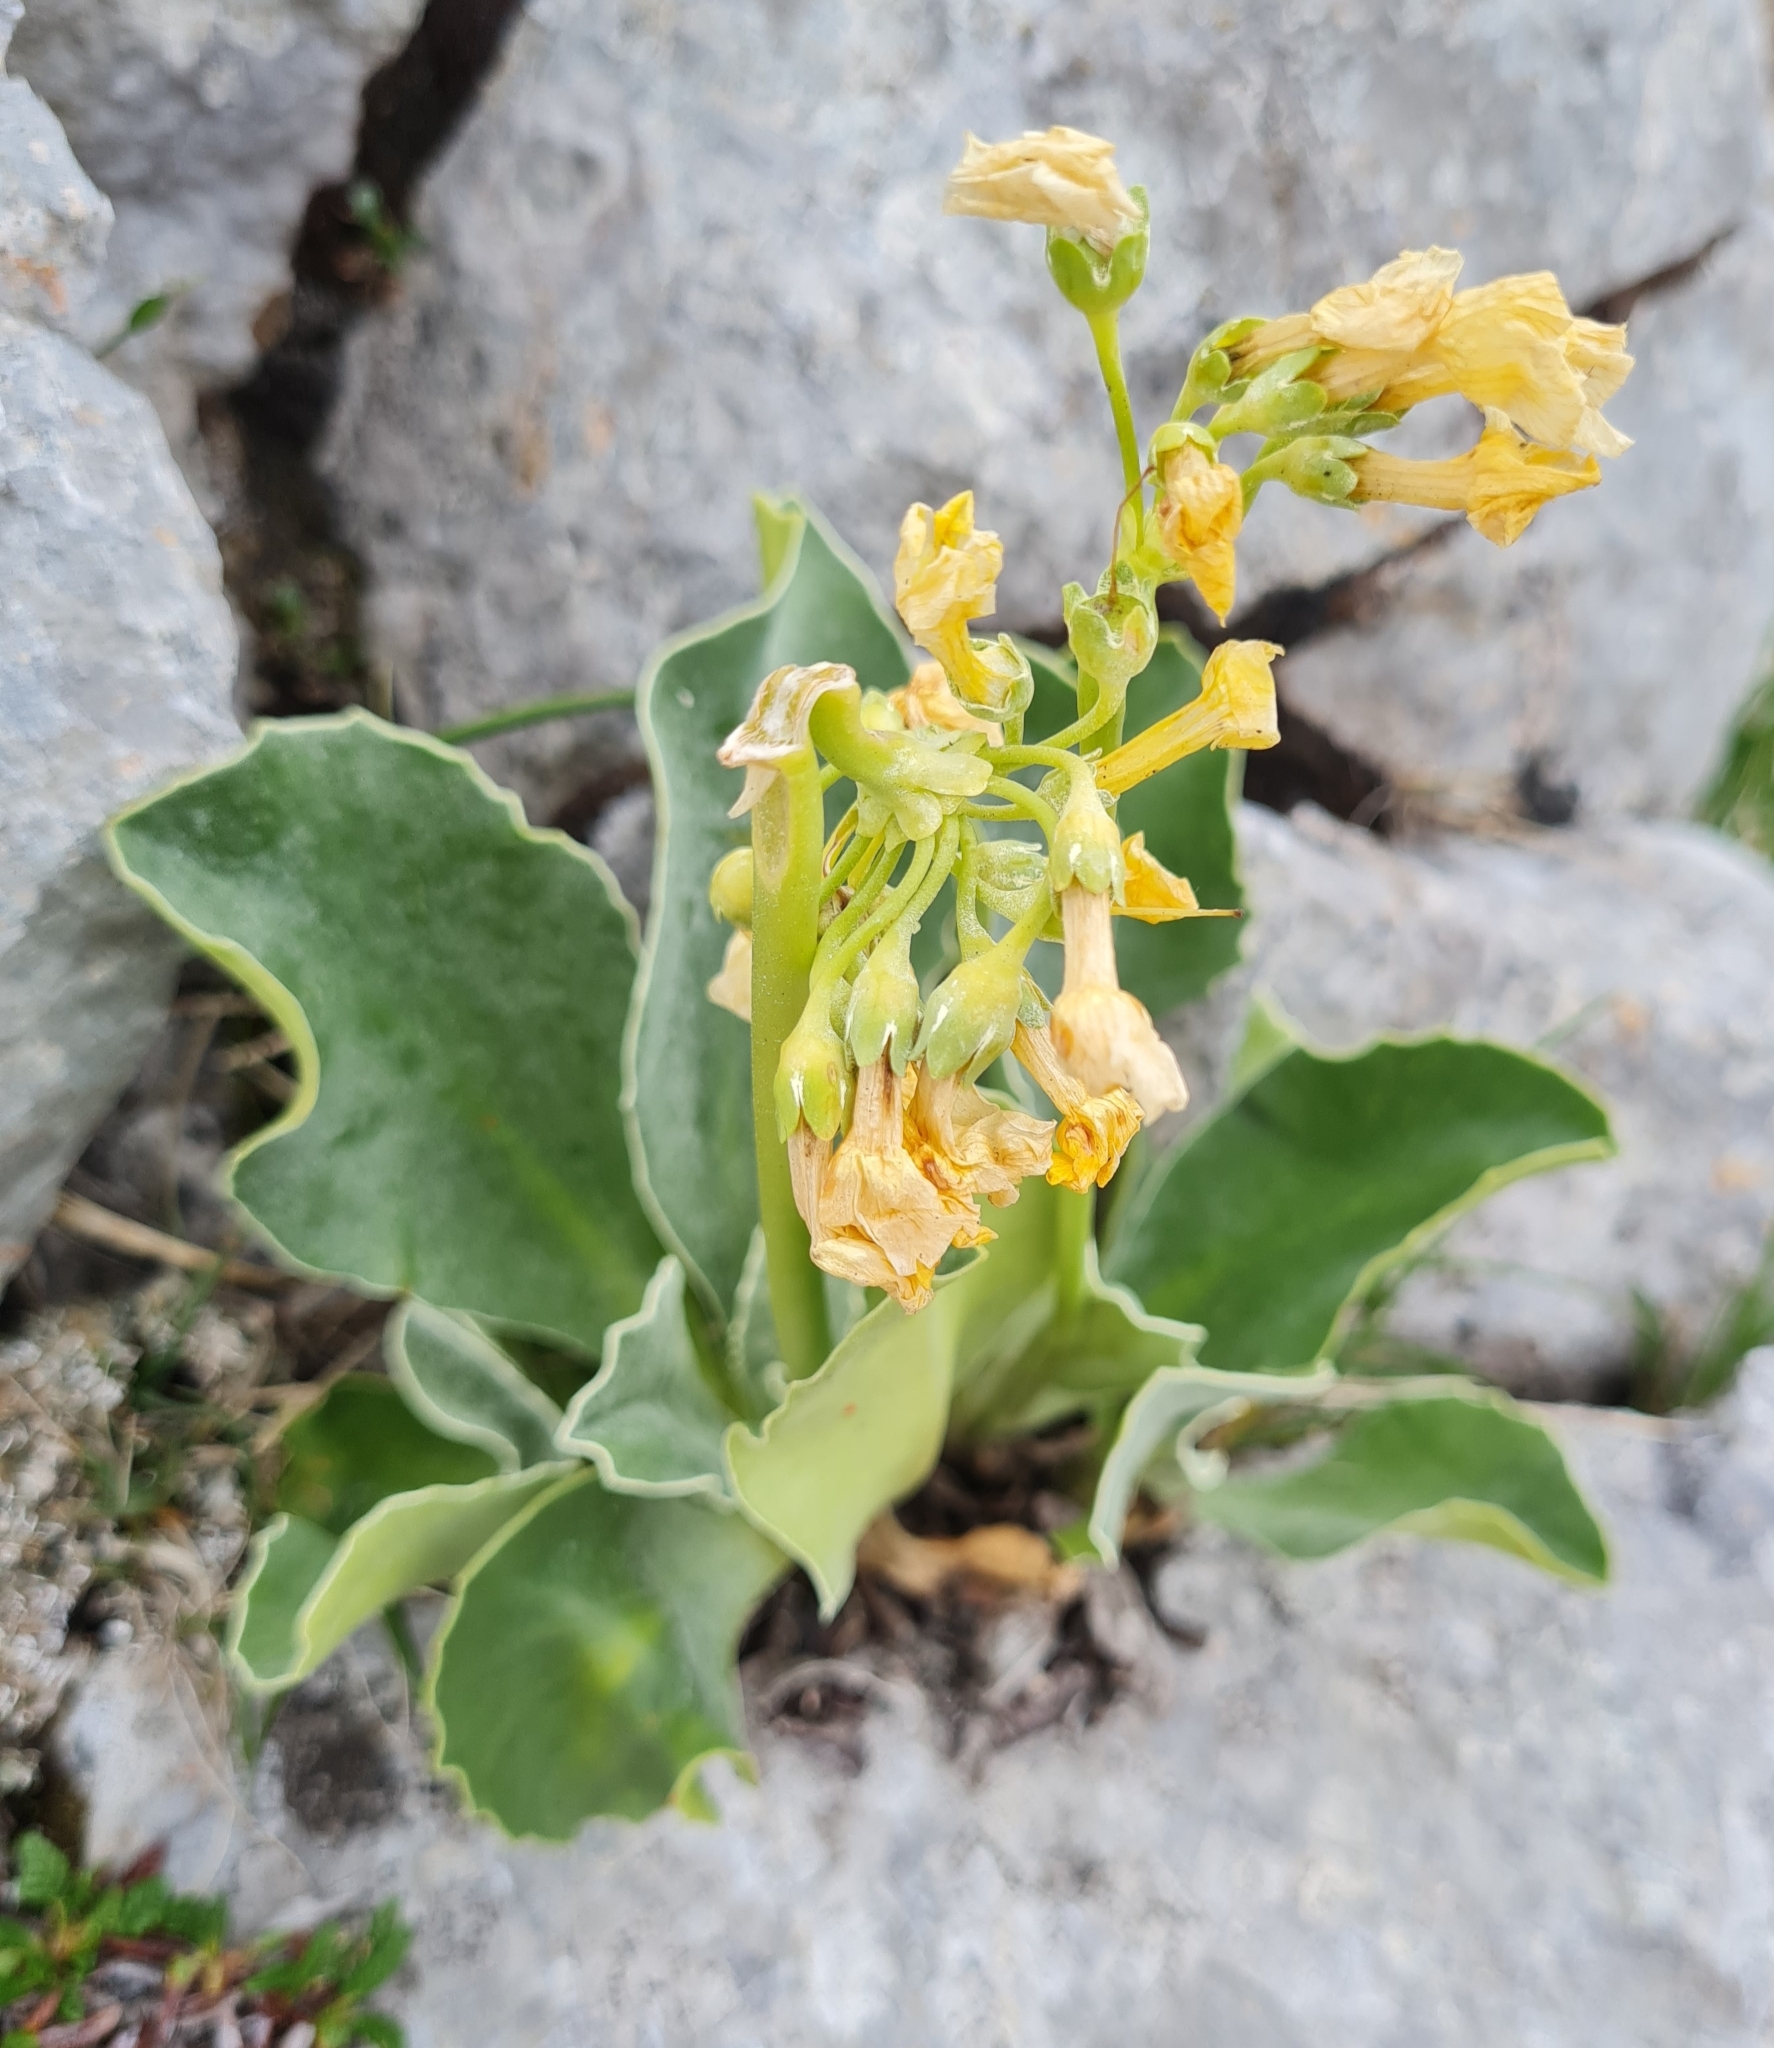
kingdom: Plantae
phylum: Tracheophyta
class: Magnoliopsida
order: Ericales
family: Primulaceae
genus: Primula
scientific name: Primula auricula
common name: Auricula
